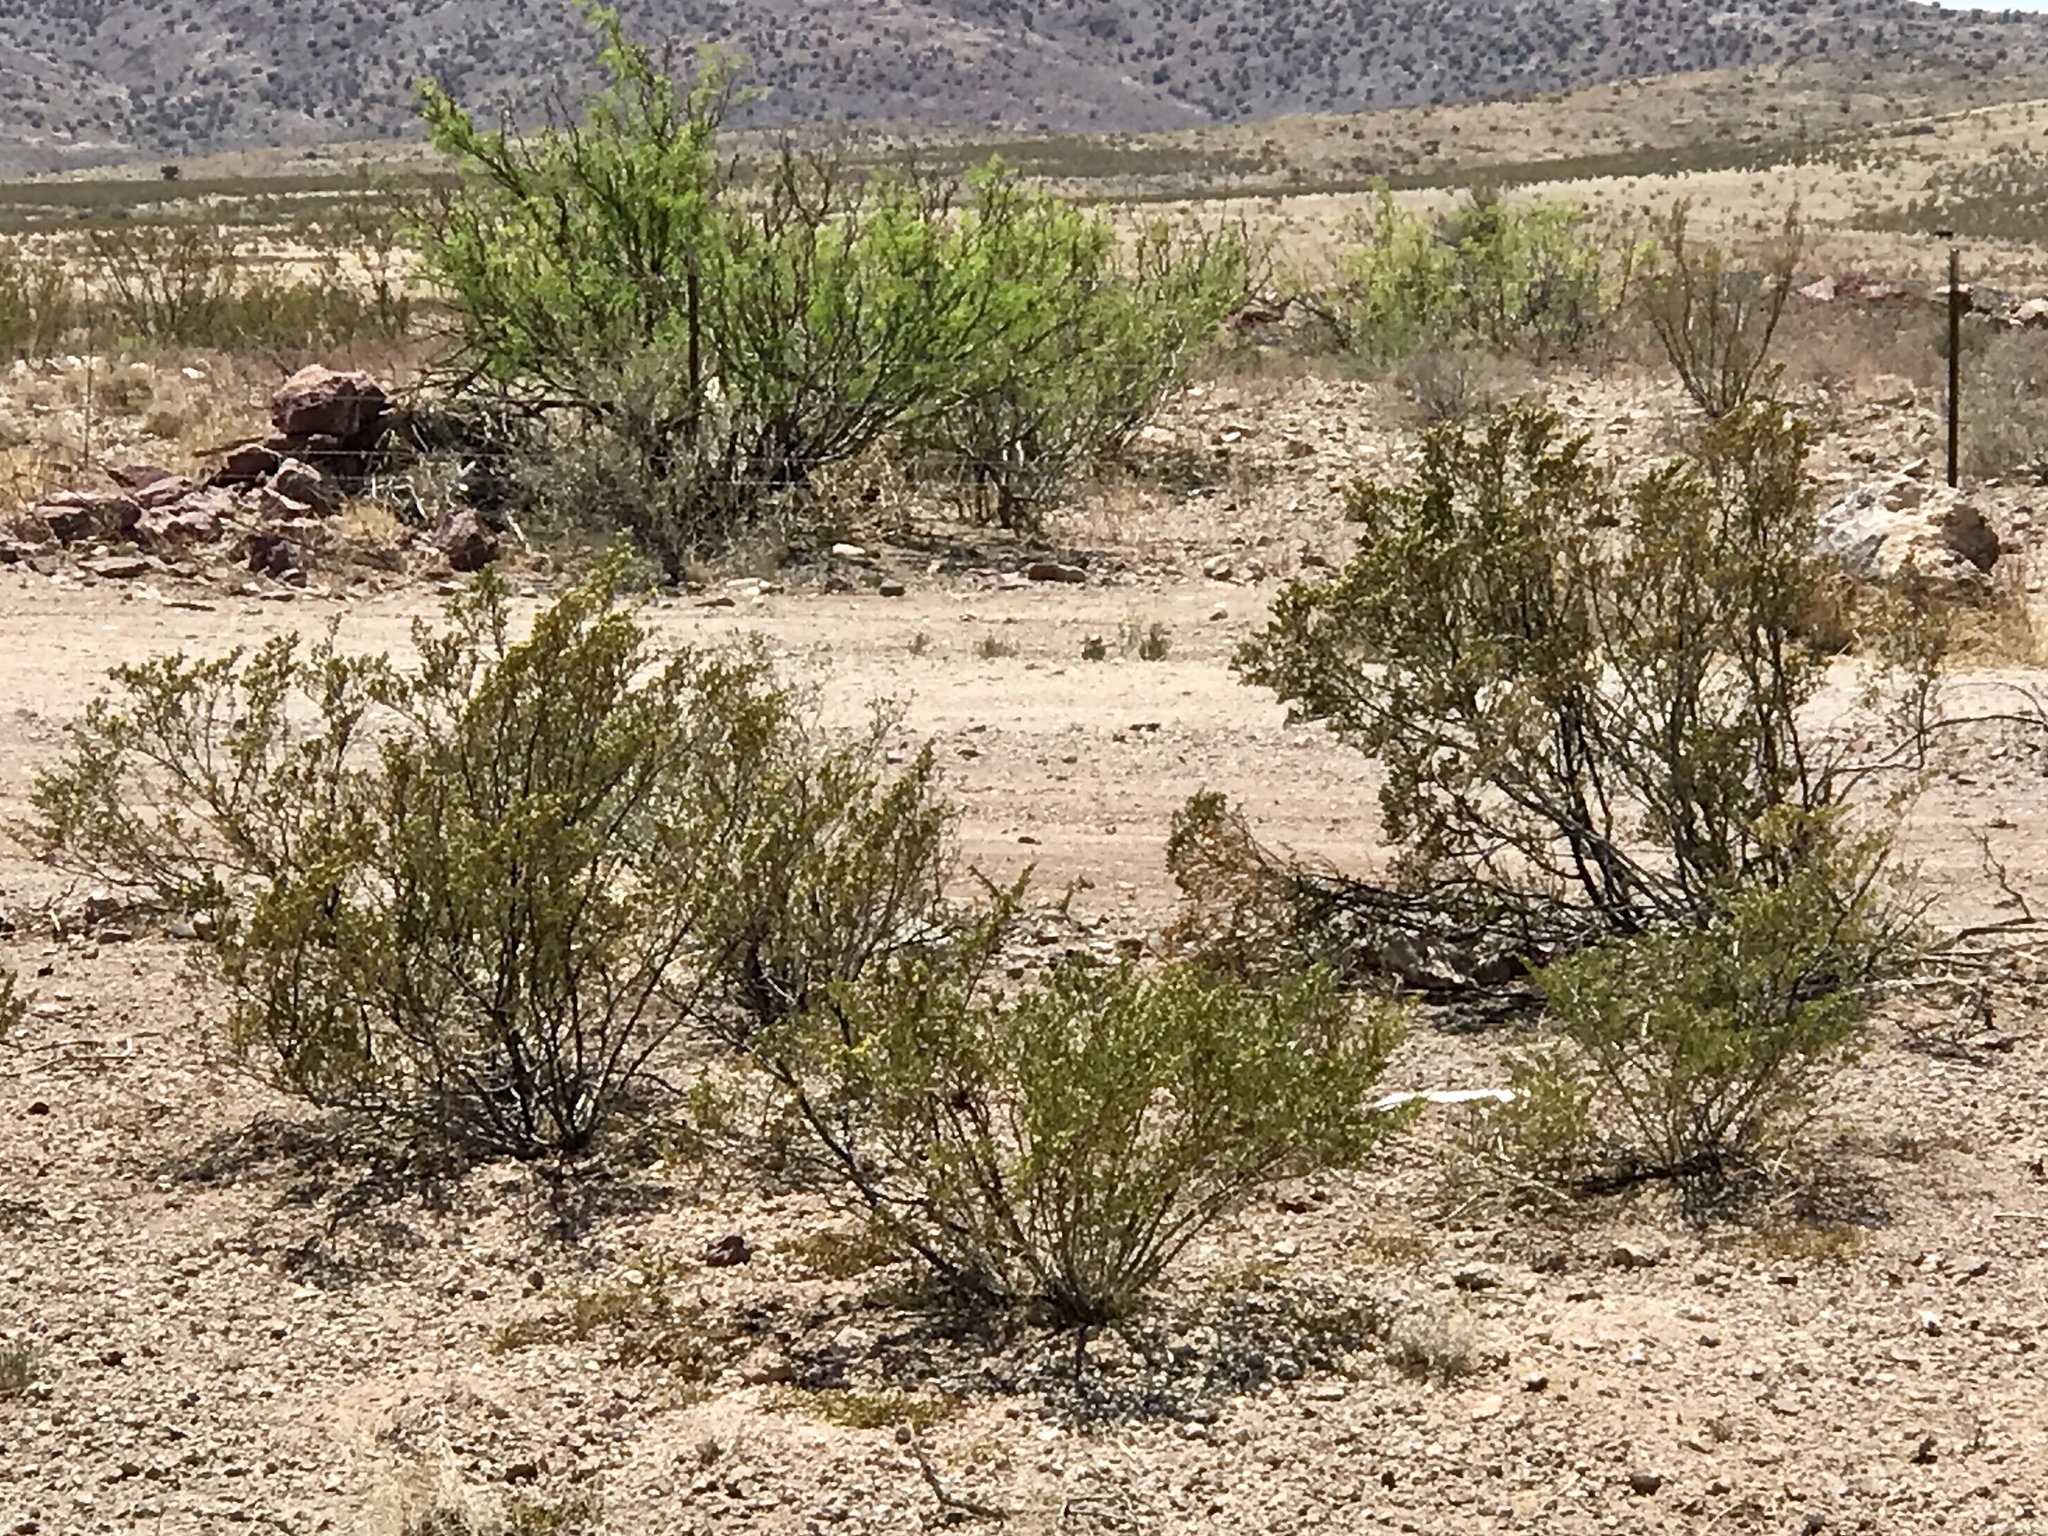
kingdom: Plantae
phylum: Tracheophyta
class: Magnoliopsida
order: Zygophyllales
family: Zygophyllaceae
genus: Larrea
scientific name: Larrea tridentata
